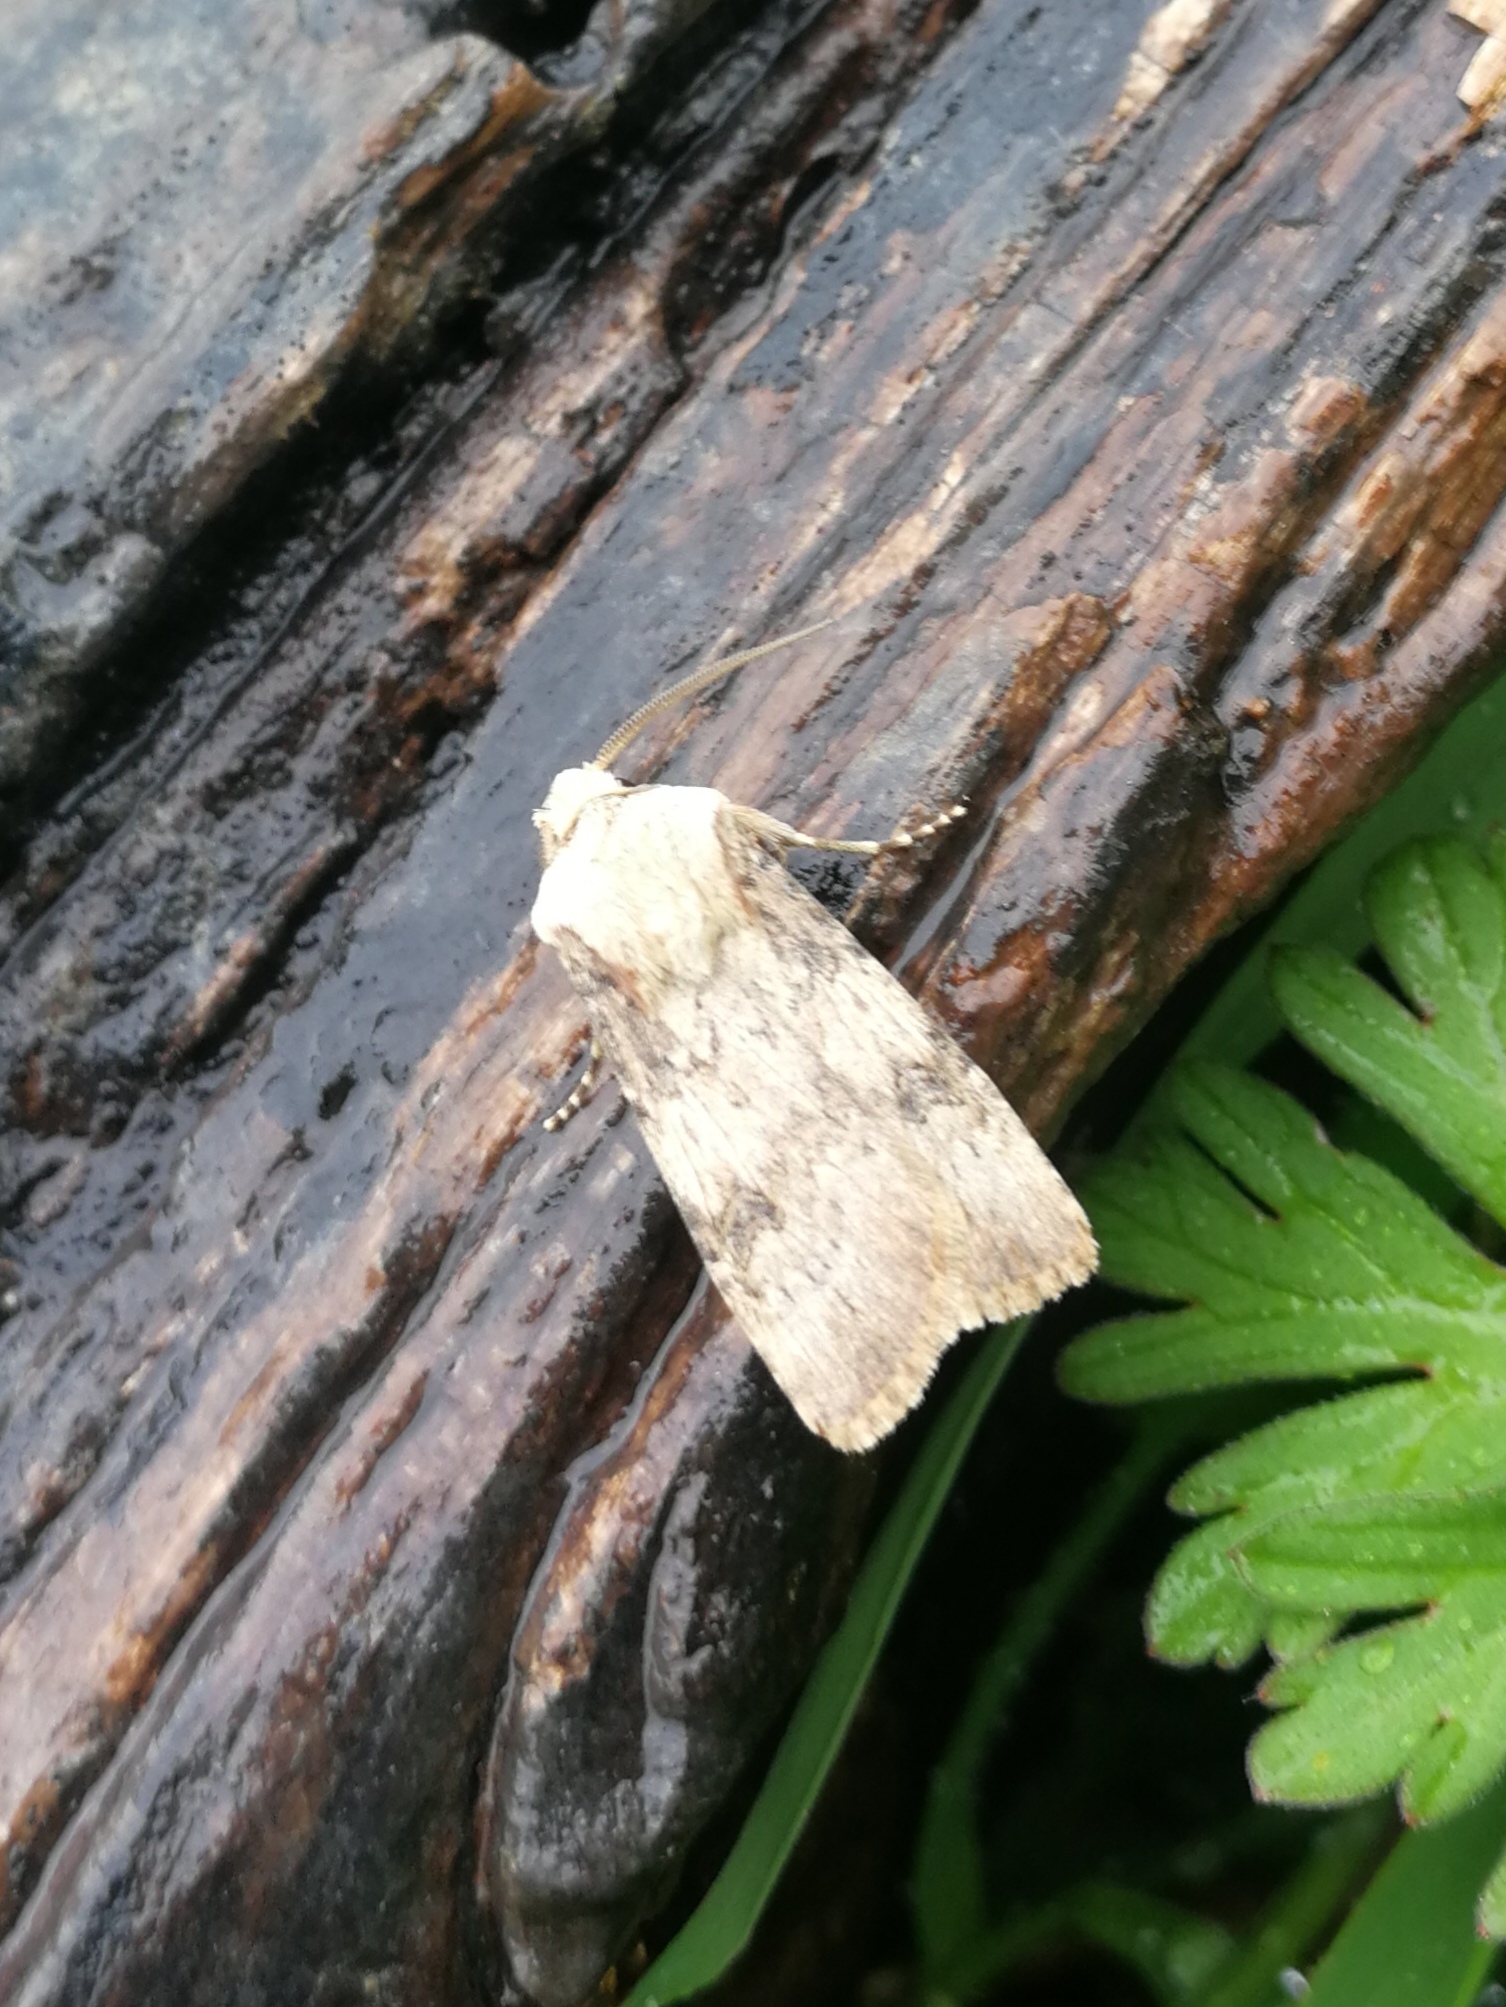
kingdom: Animalia
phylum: Arthropoda
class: Insecta
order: Lepidoptera
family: Noctuidae
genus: Agrotis
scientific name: Agrotis puta
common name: Shuttle-shaped dart
